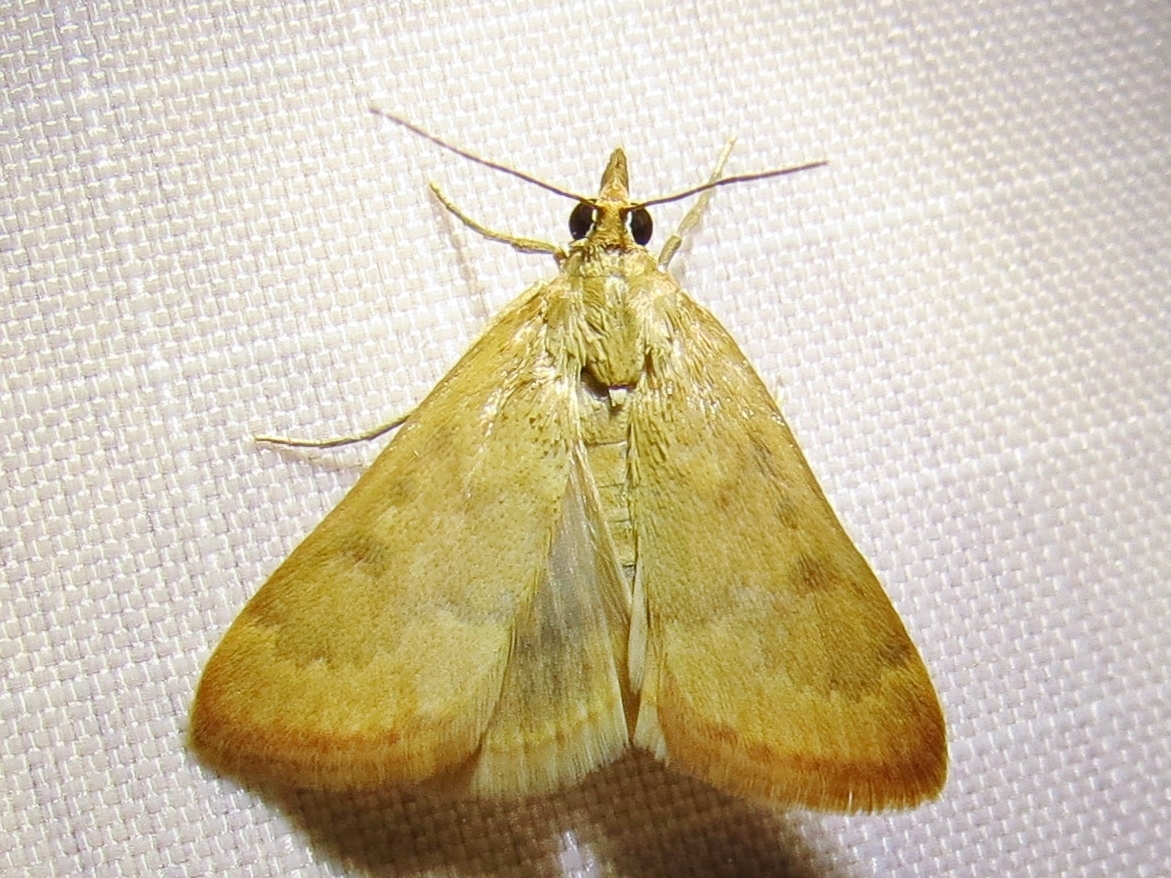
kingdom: Animalia
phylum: Arthropoda
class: Insecta
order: Lepidoptera
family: Crambidae
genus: Achyra
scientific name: Achyra rantalis
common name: Garden webworm
